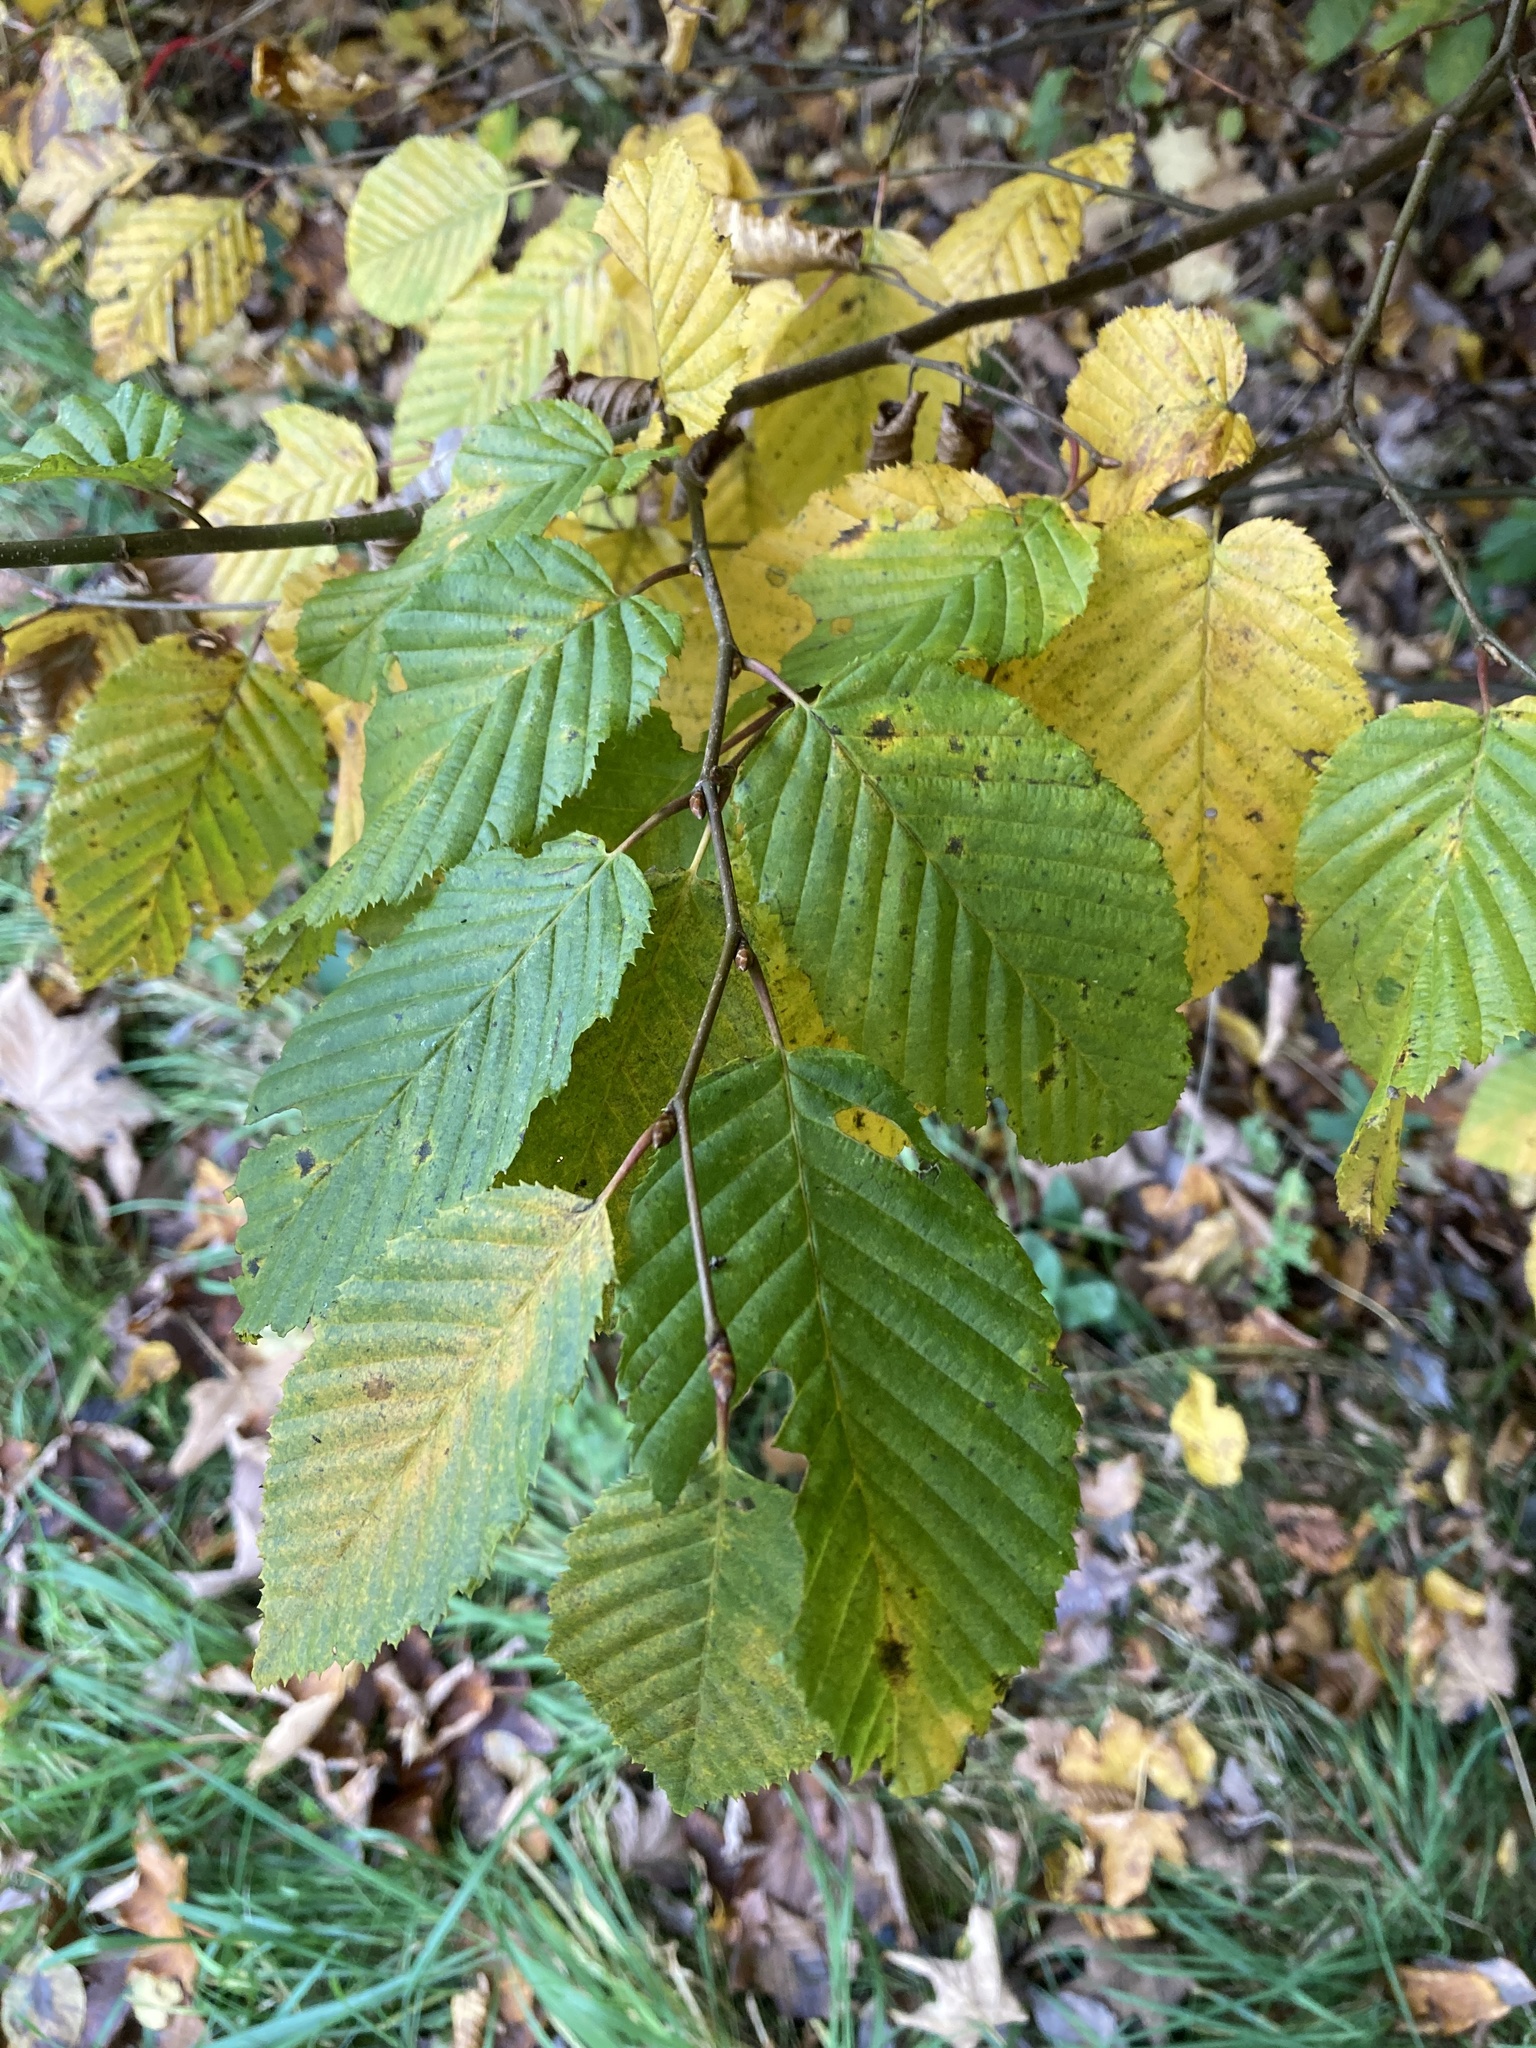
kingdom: Plantae
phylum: Tracheophyta
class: Magnoliopsida
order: Fagales
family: Betulaceae
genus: Carpinus
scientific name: Carpinus betulus
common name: Hornbeam
